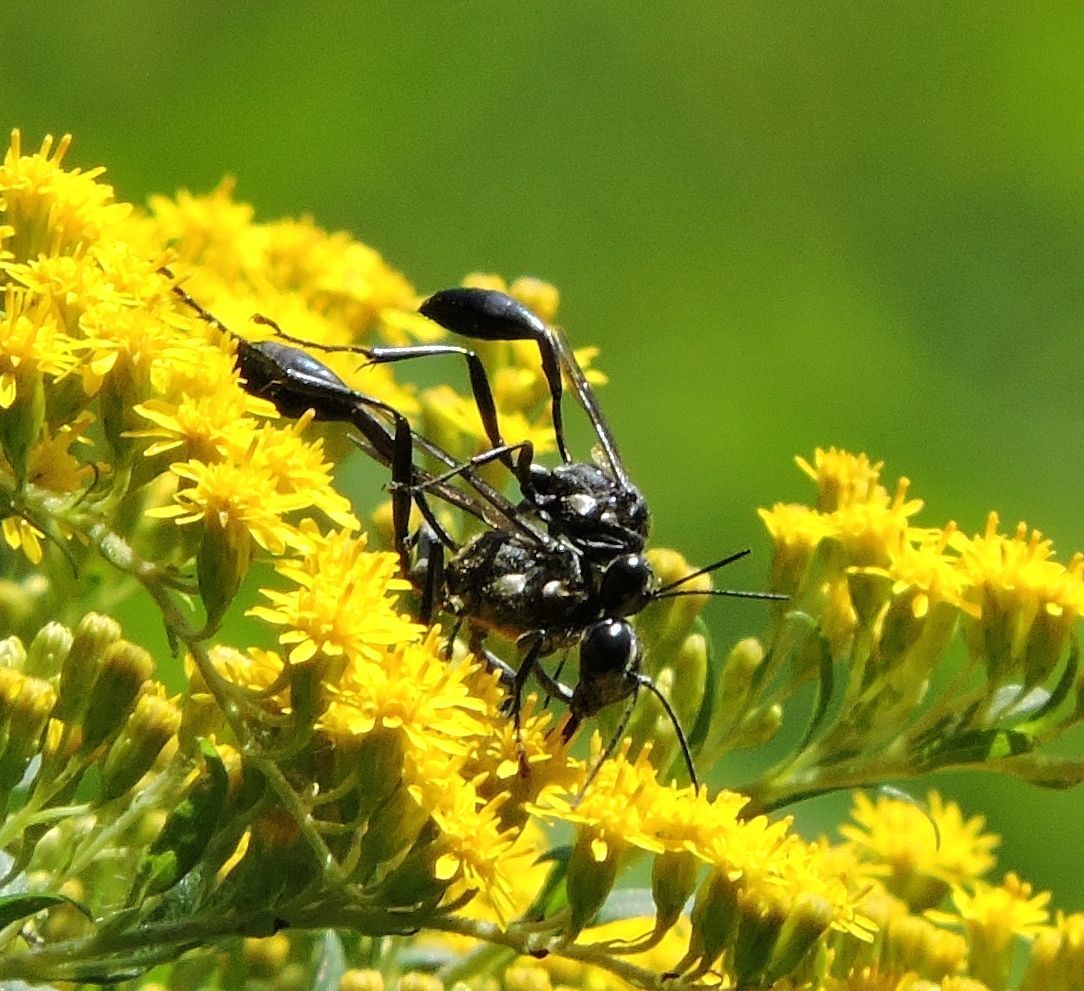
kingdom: Animalia
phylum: Arthropoda
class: Insecta
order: Hymenoptera
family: Sphecidae
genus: Eremnophila
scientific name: Eremnophila aureonotata
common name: Gold-marked thread-waisted wasp
